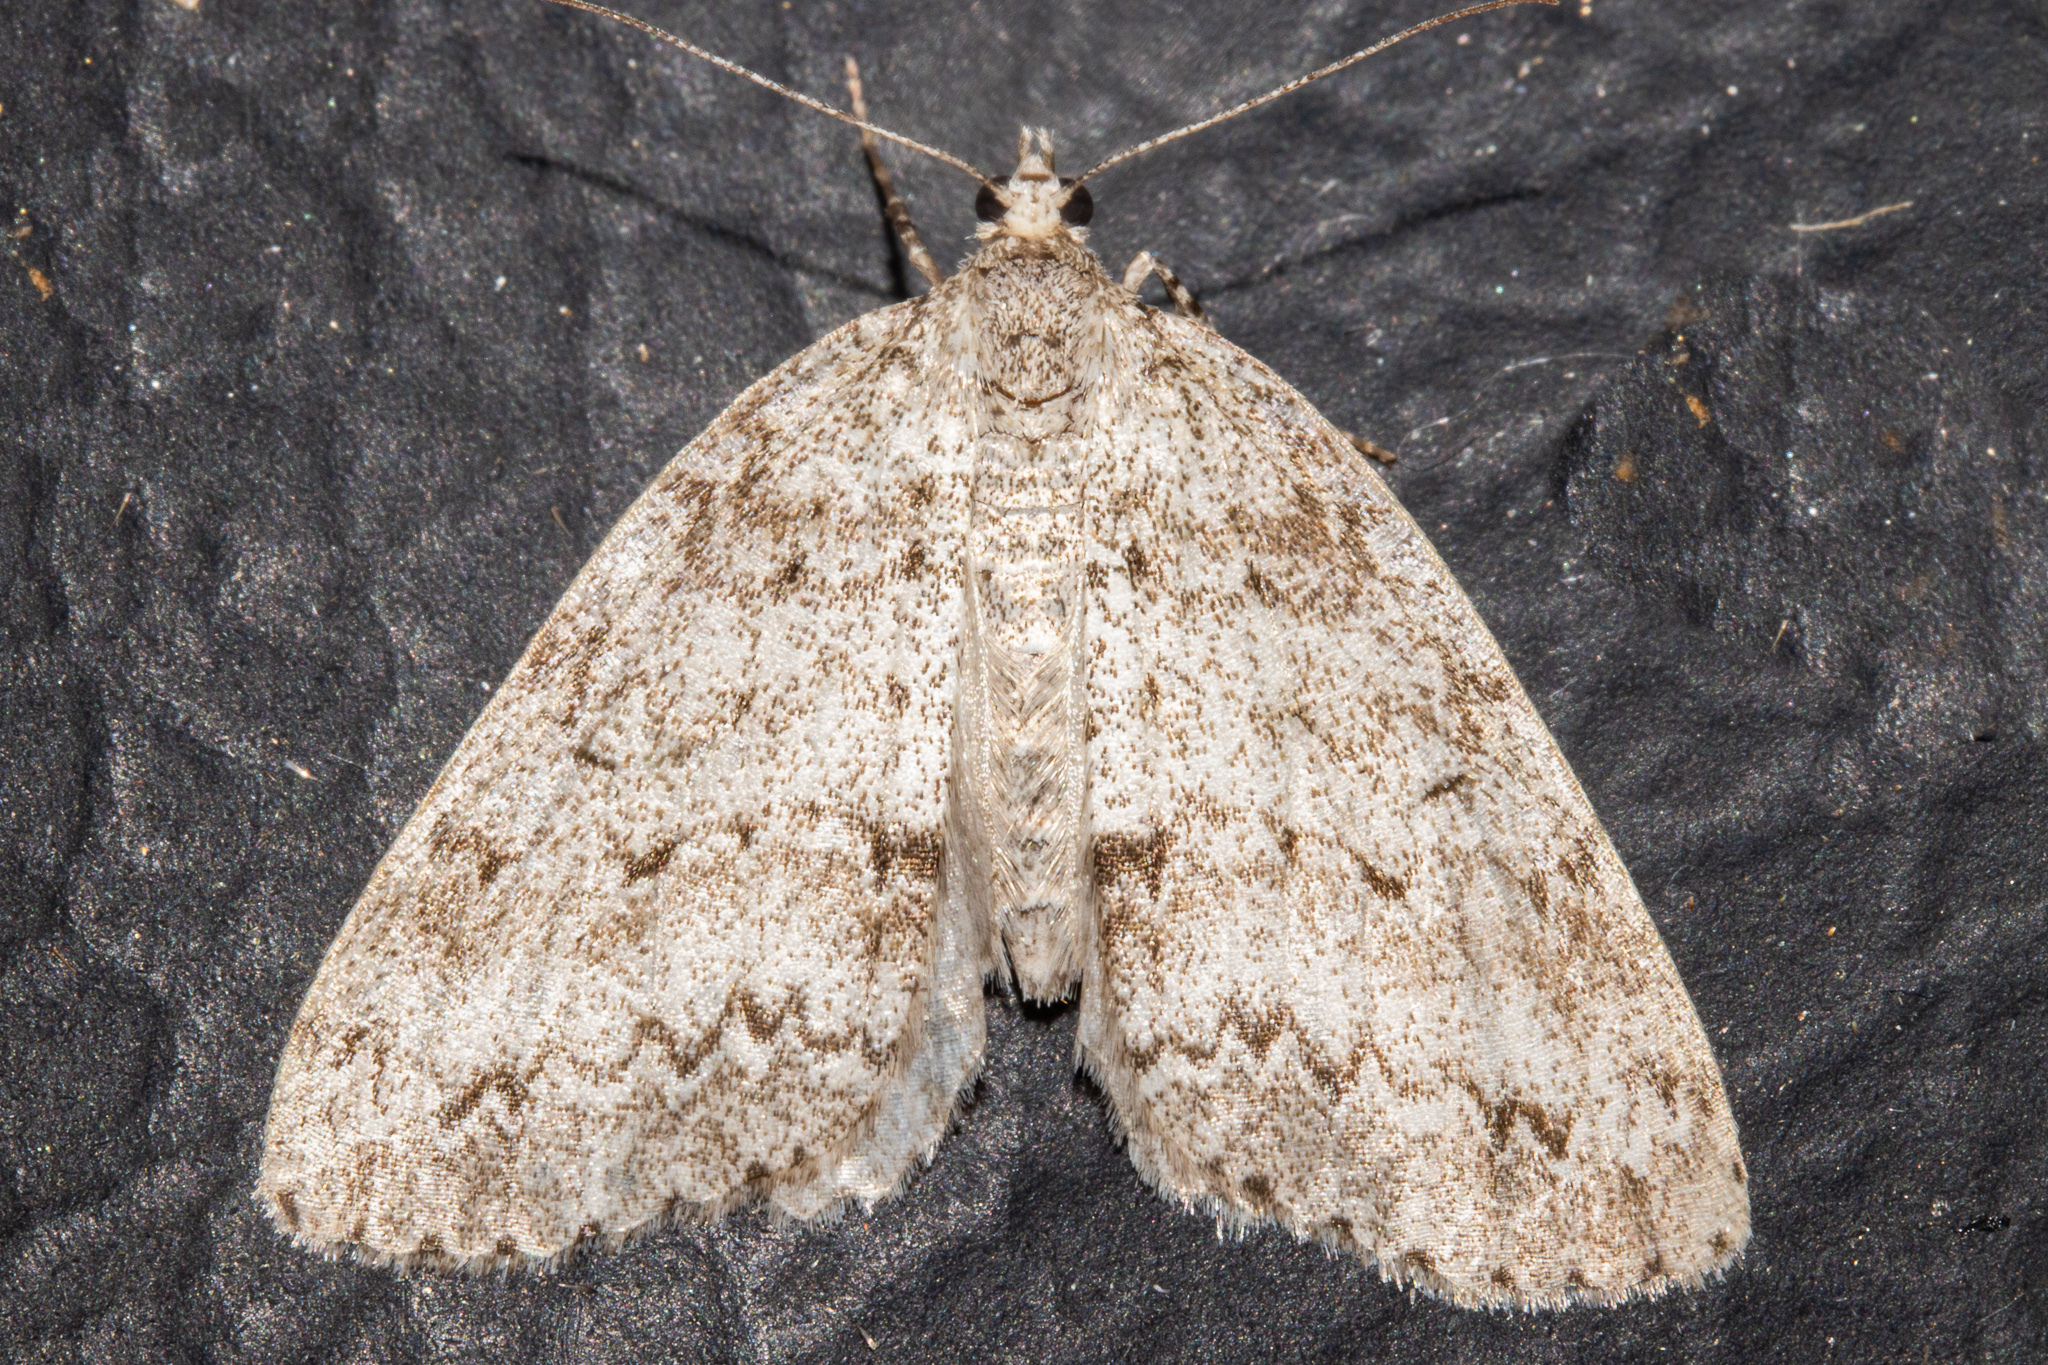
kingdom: Animalia
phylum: Arthropoda
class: Insecta
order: Lepidoptera
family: Geometridae
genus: Pseudocoremia
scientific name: Pseudocoremia fenerata
